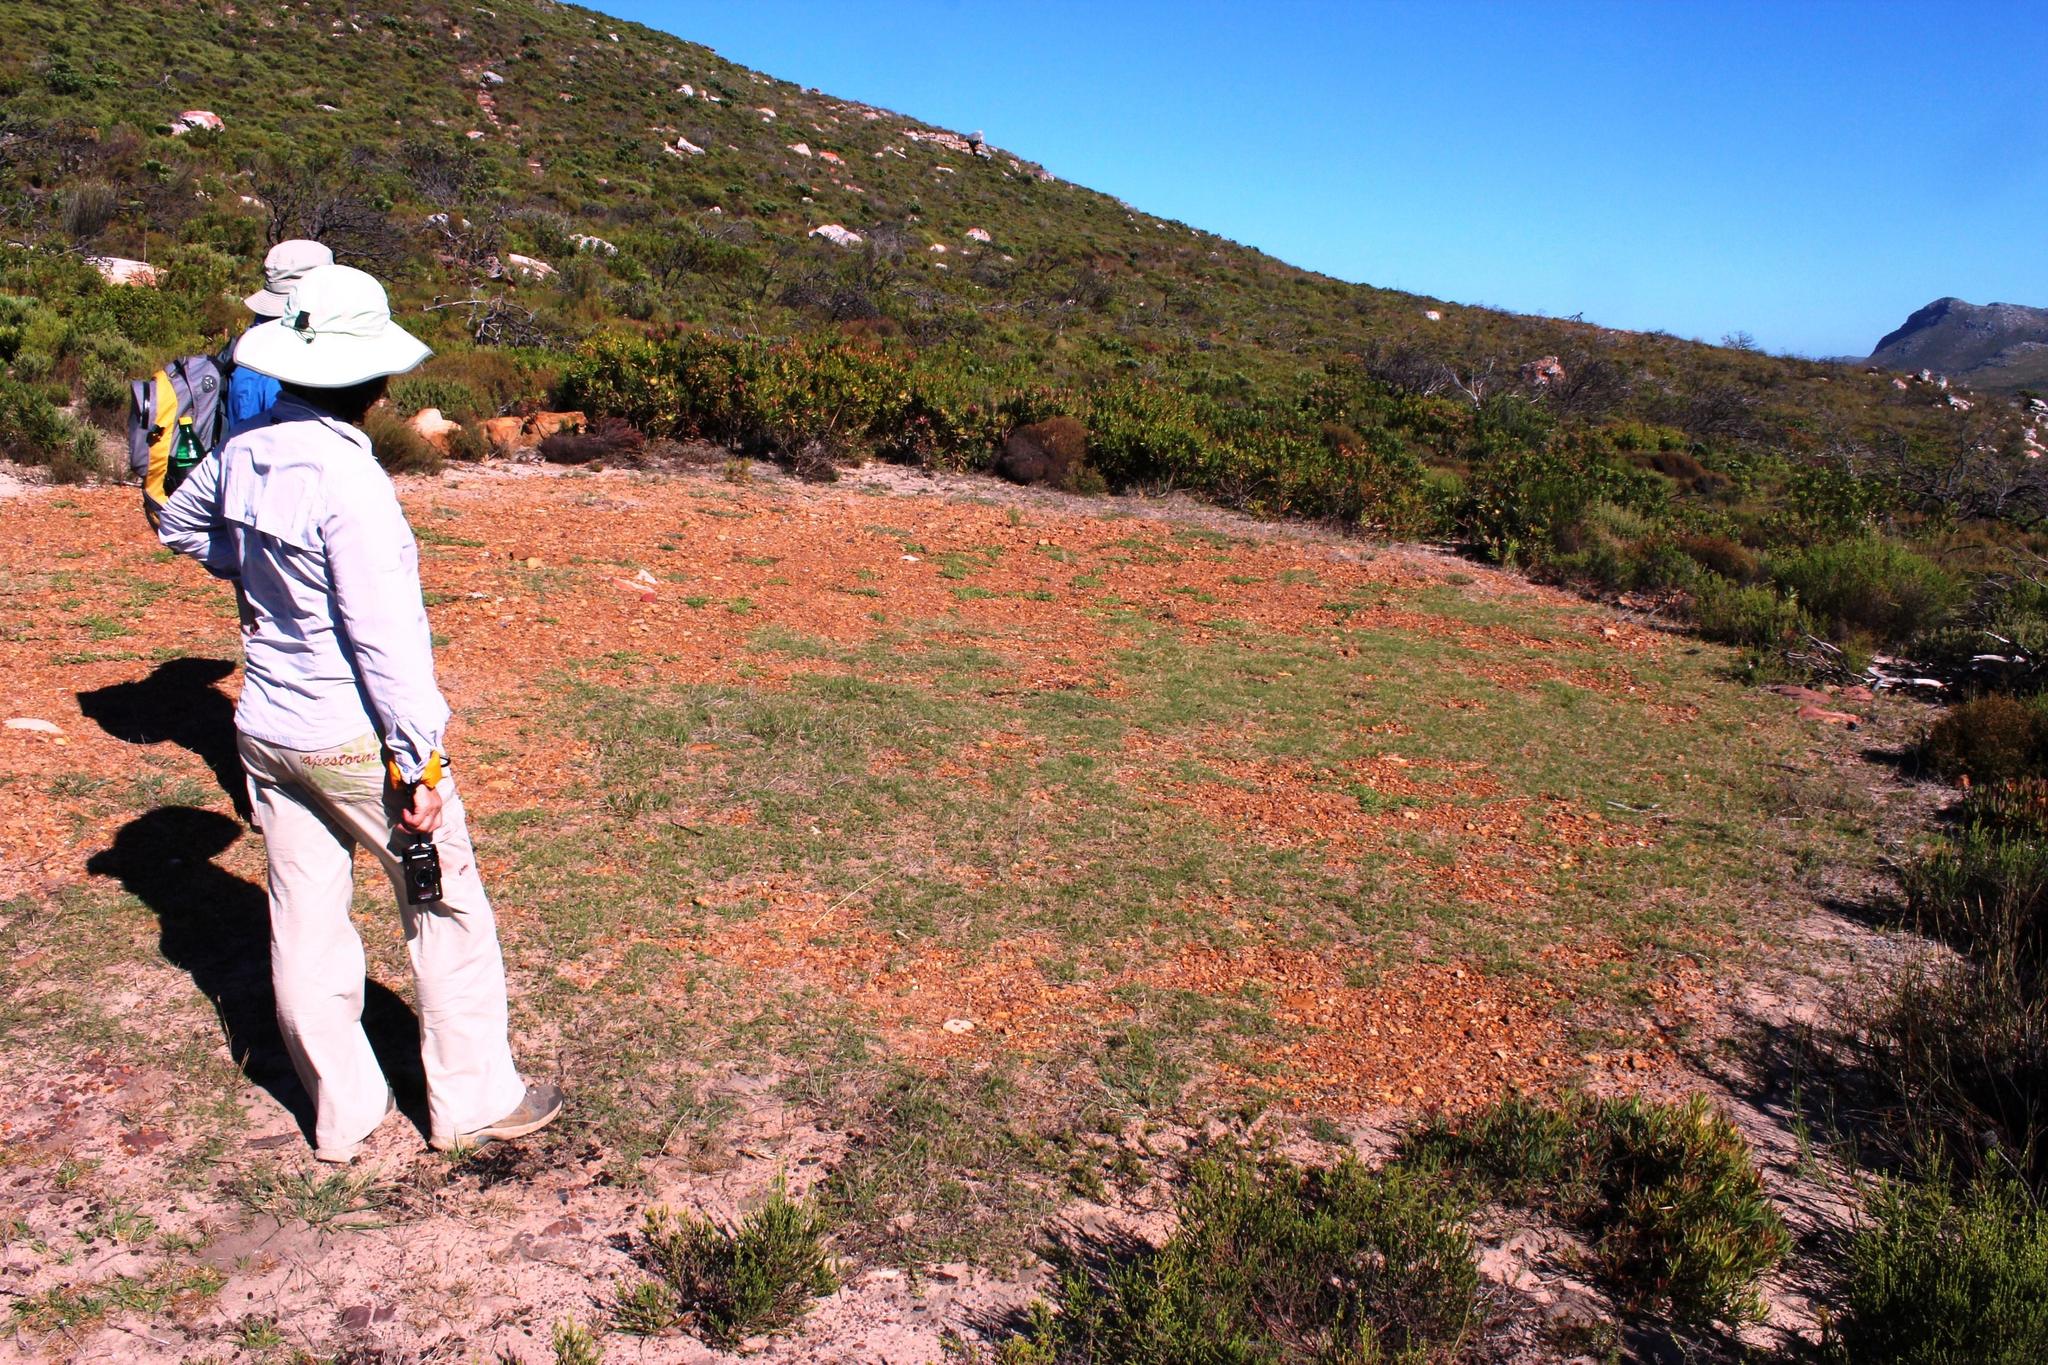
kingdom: Animalia
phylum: Chordata
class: Mammalia
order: Artiodactyla
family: Bovidae
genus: Damaliscus
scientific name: Damaliscus pygargus
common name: Bontebok
